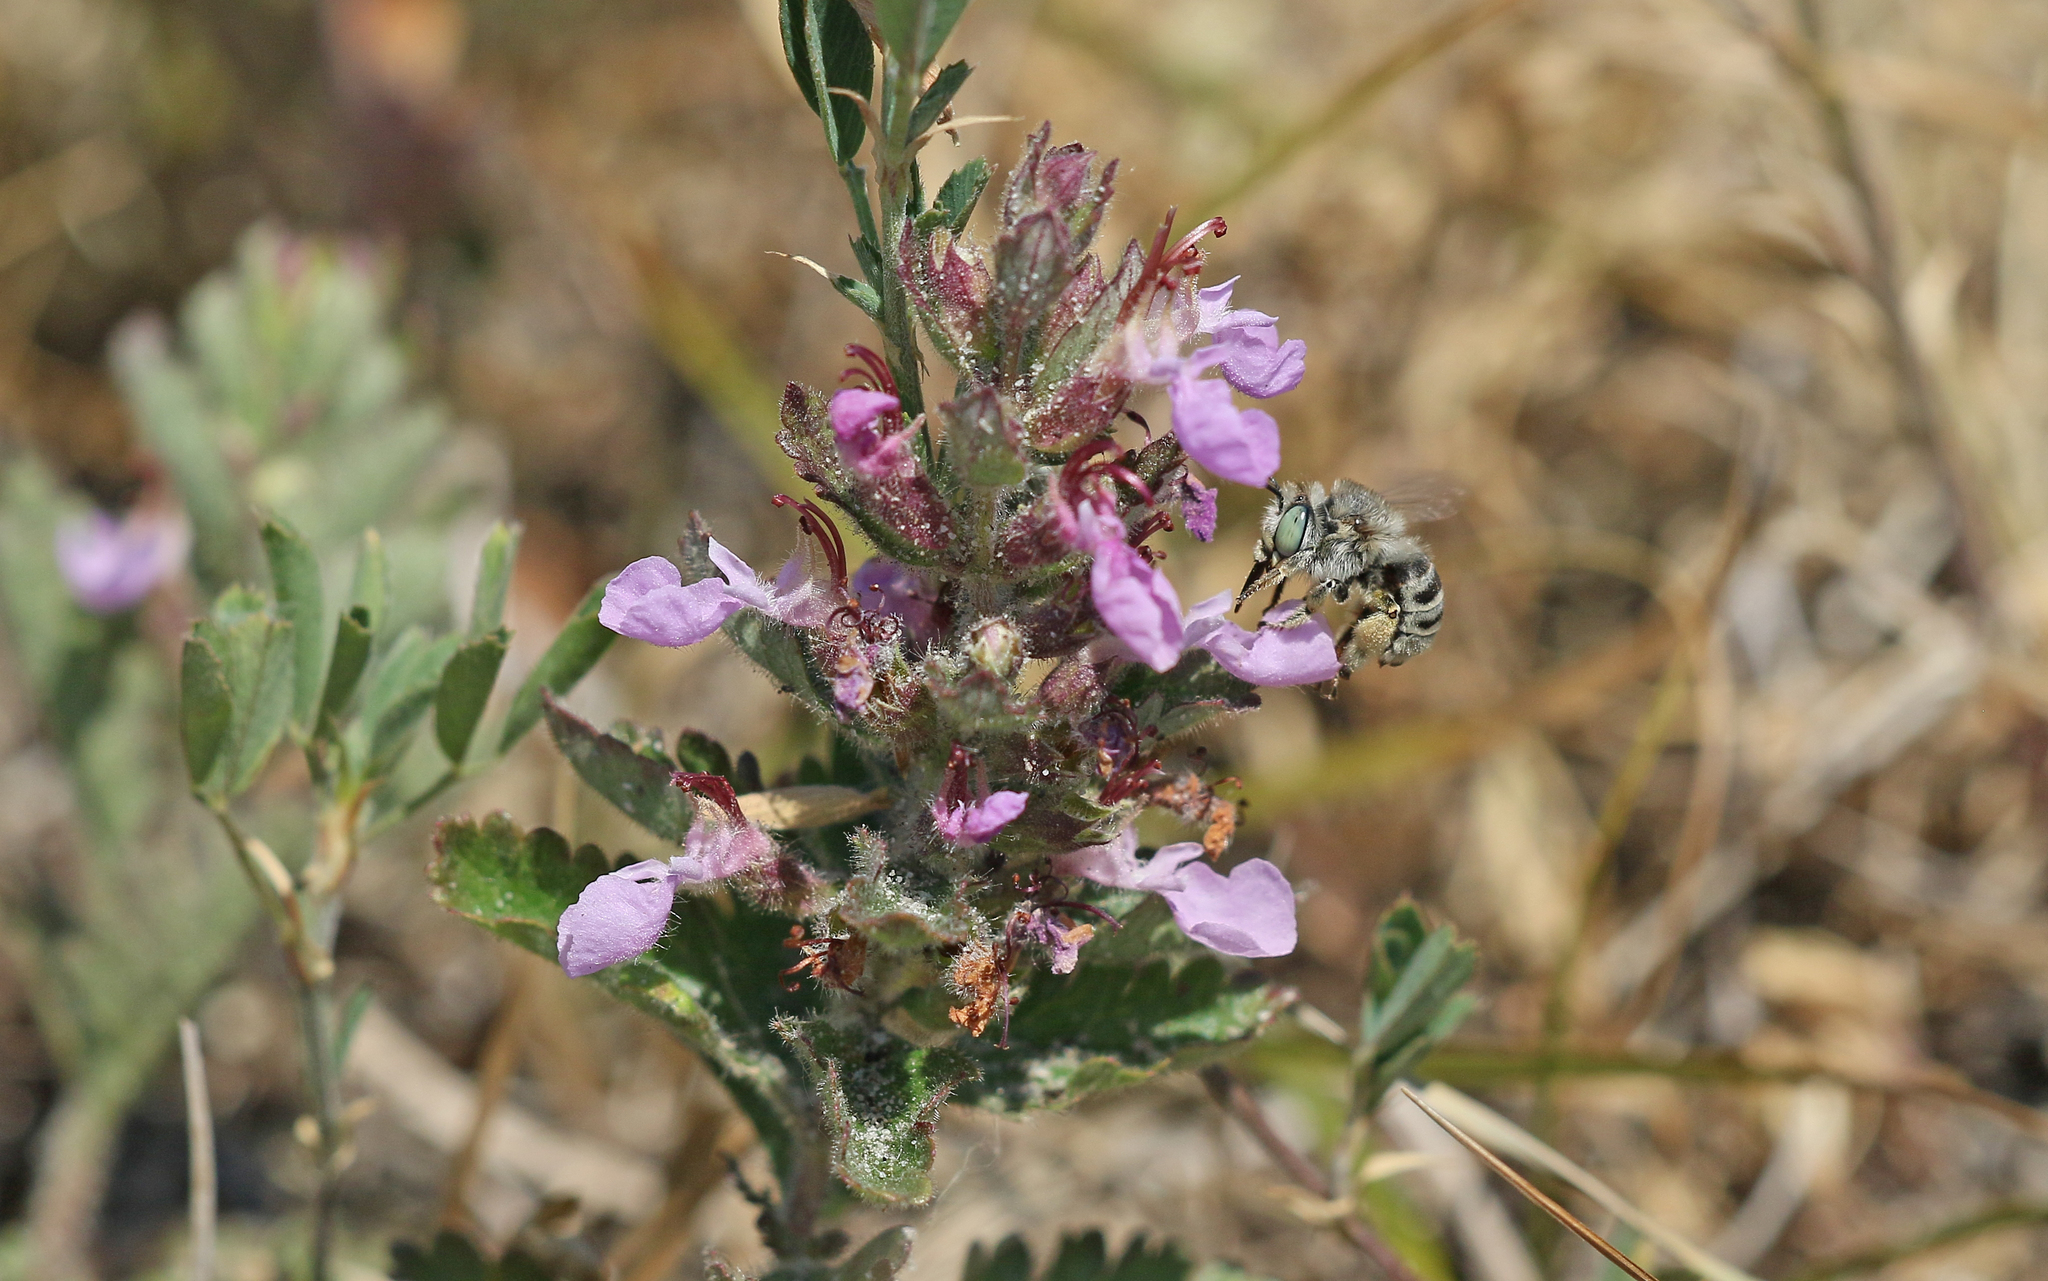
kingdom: Animalia
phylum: Arthropoda
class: Insecta
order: Hymenoptera
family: Apidae
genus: Anthophora
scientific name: Anthophora bimaculata
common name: Green-eyed flower bee
